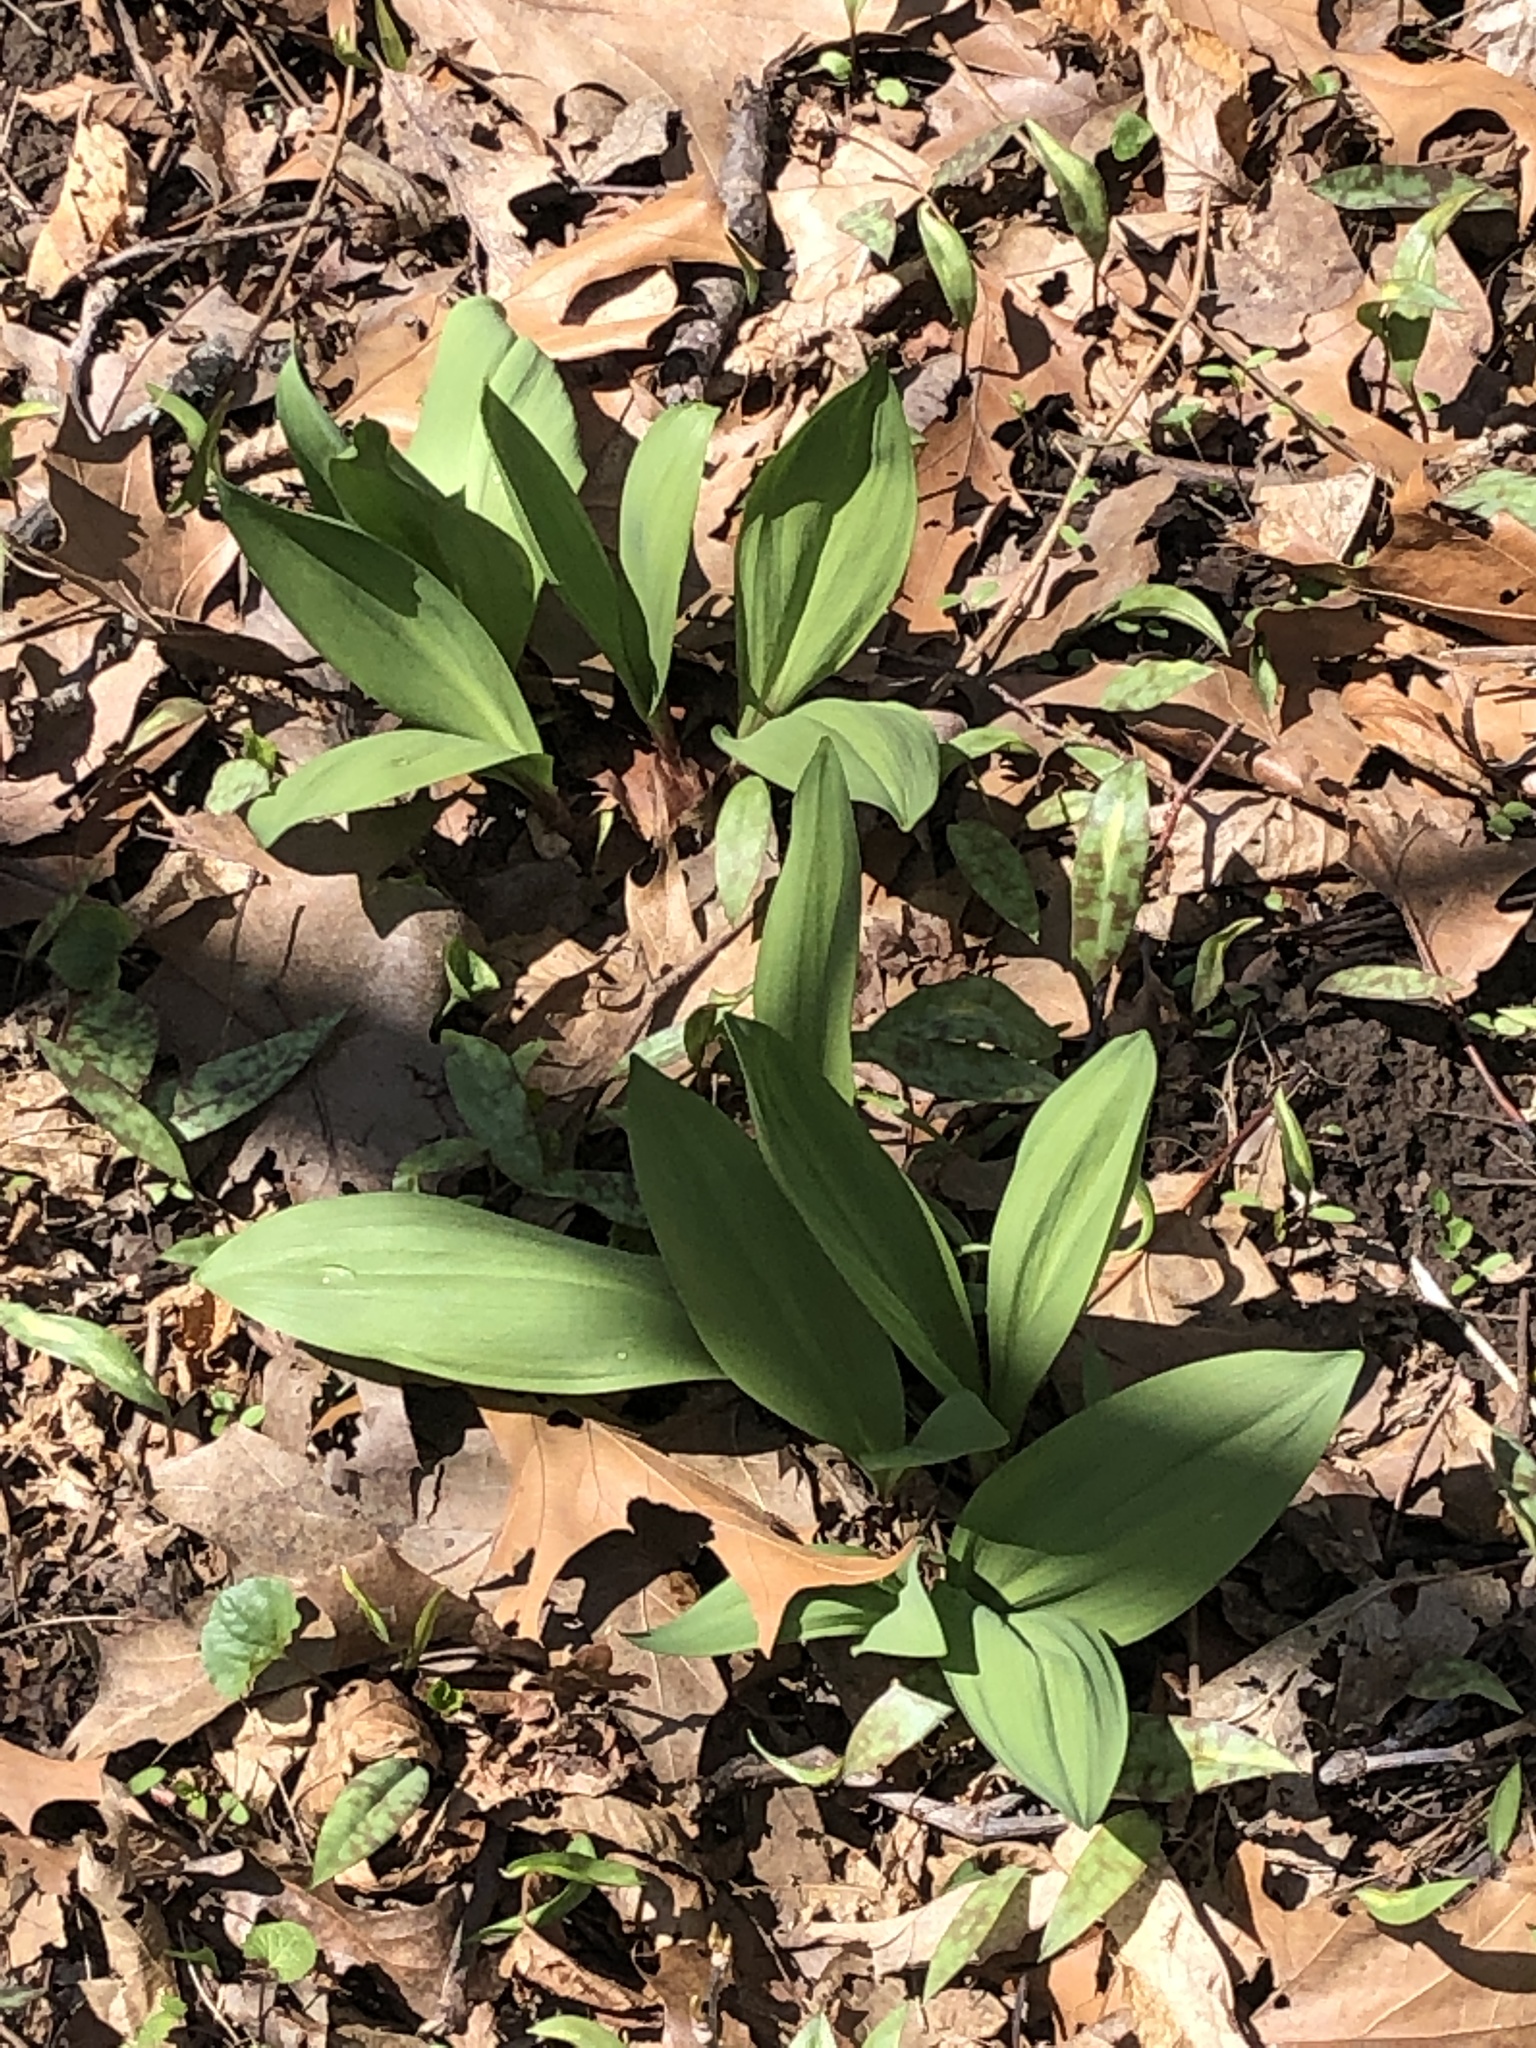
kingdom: Plantae
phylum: Tracheophyta
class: Liliopsida
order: Asparagales
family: Amaryllidaceae
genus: Allium
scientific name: Allium tricoccum
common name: Ramp
